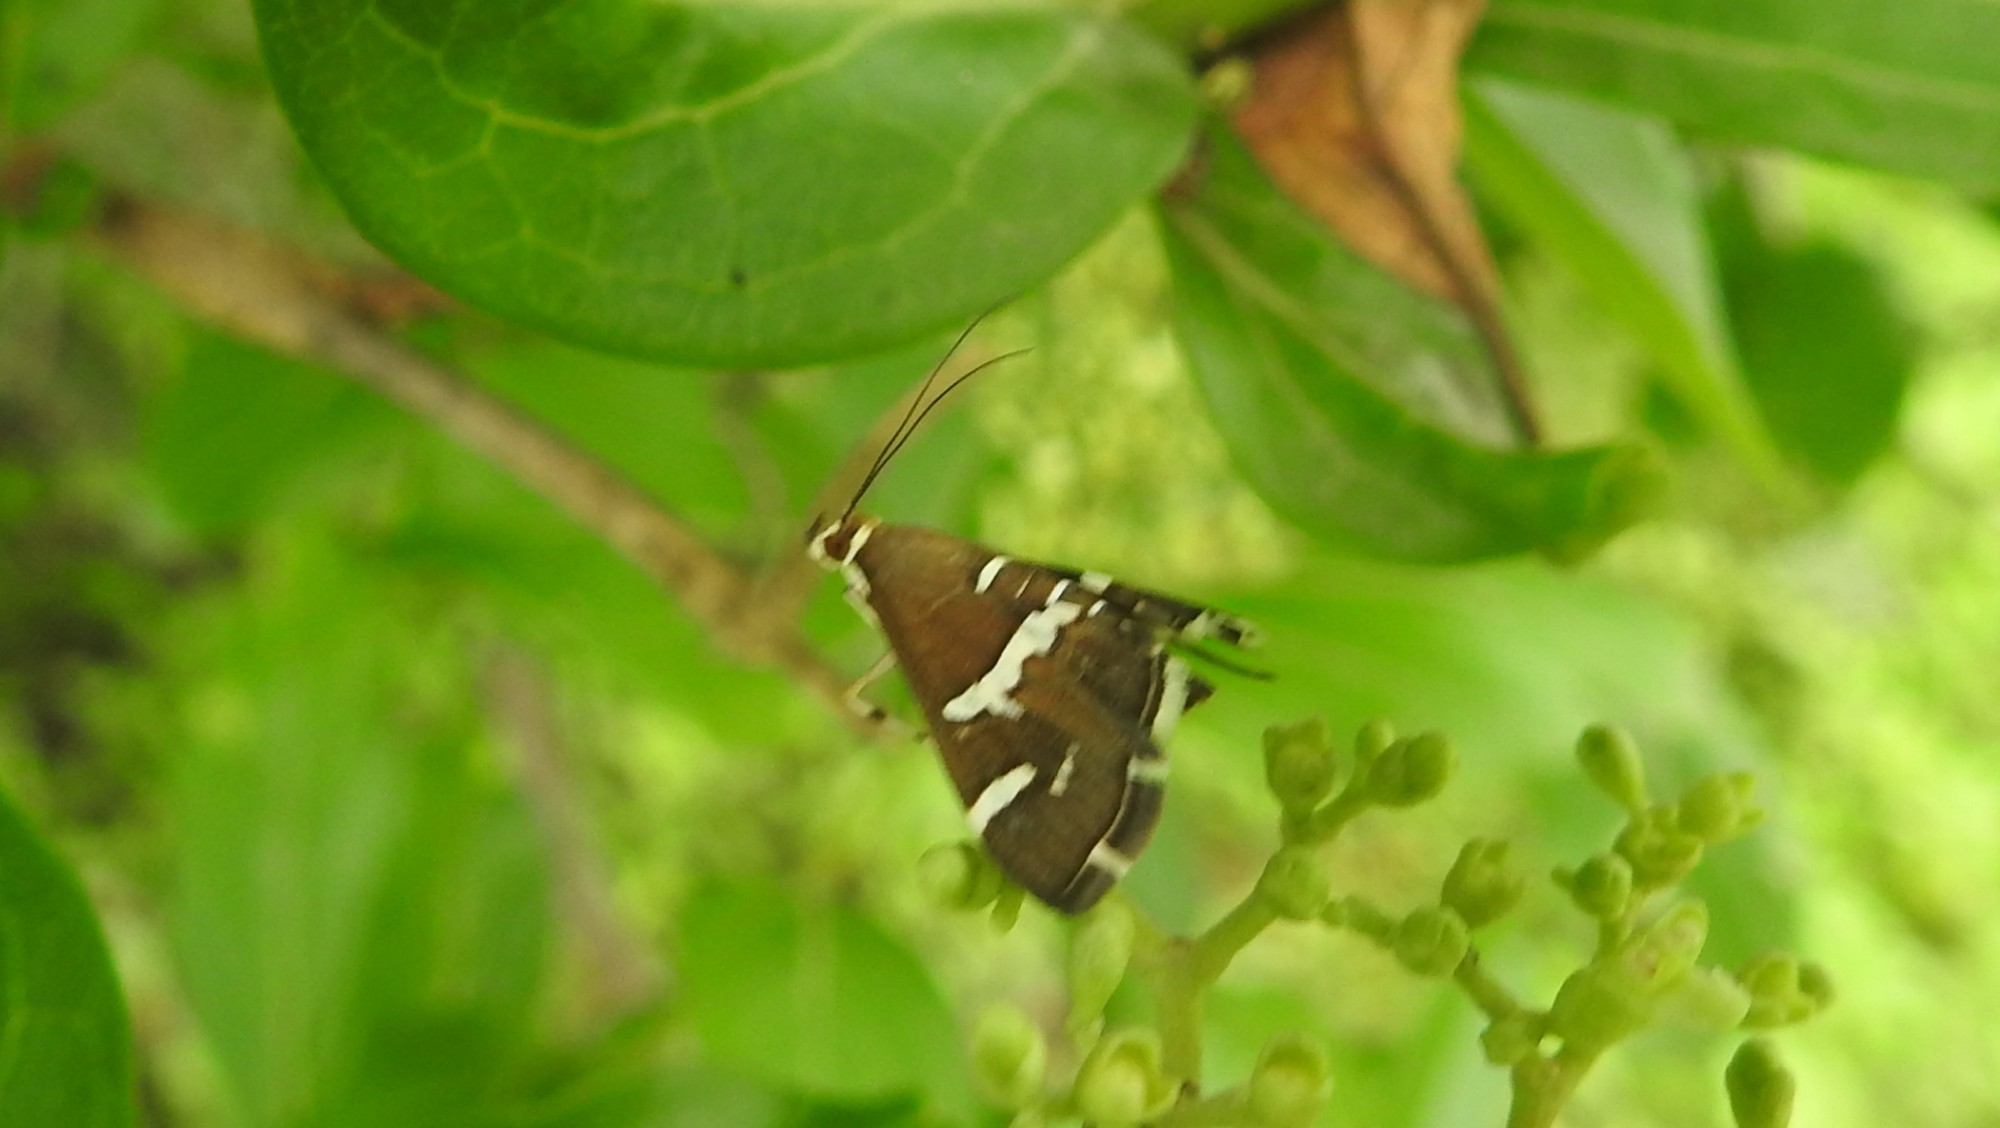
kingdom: Animalia
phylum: Arthropoda
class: Insecta
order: Lepidoptera
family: Crambidae
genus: Spoladea
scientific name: Spoladea recurvalis
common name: Beet webworm moth
